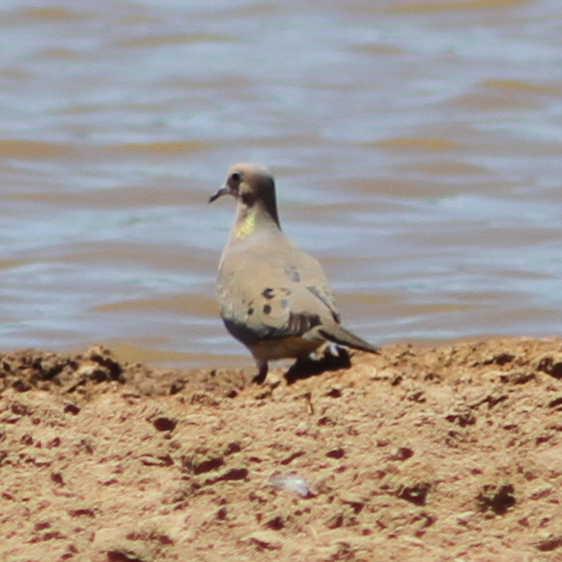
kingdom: Animalia
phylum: Chordata
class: Aves
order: Columbiformes
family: Columbidae
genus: Zenaida
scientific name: Zenaida macroura
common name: Mourning dove
